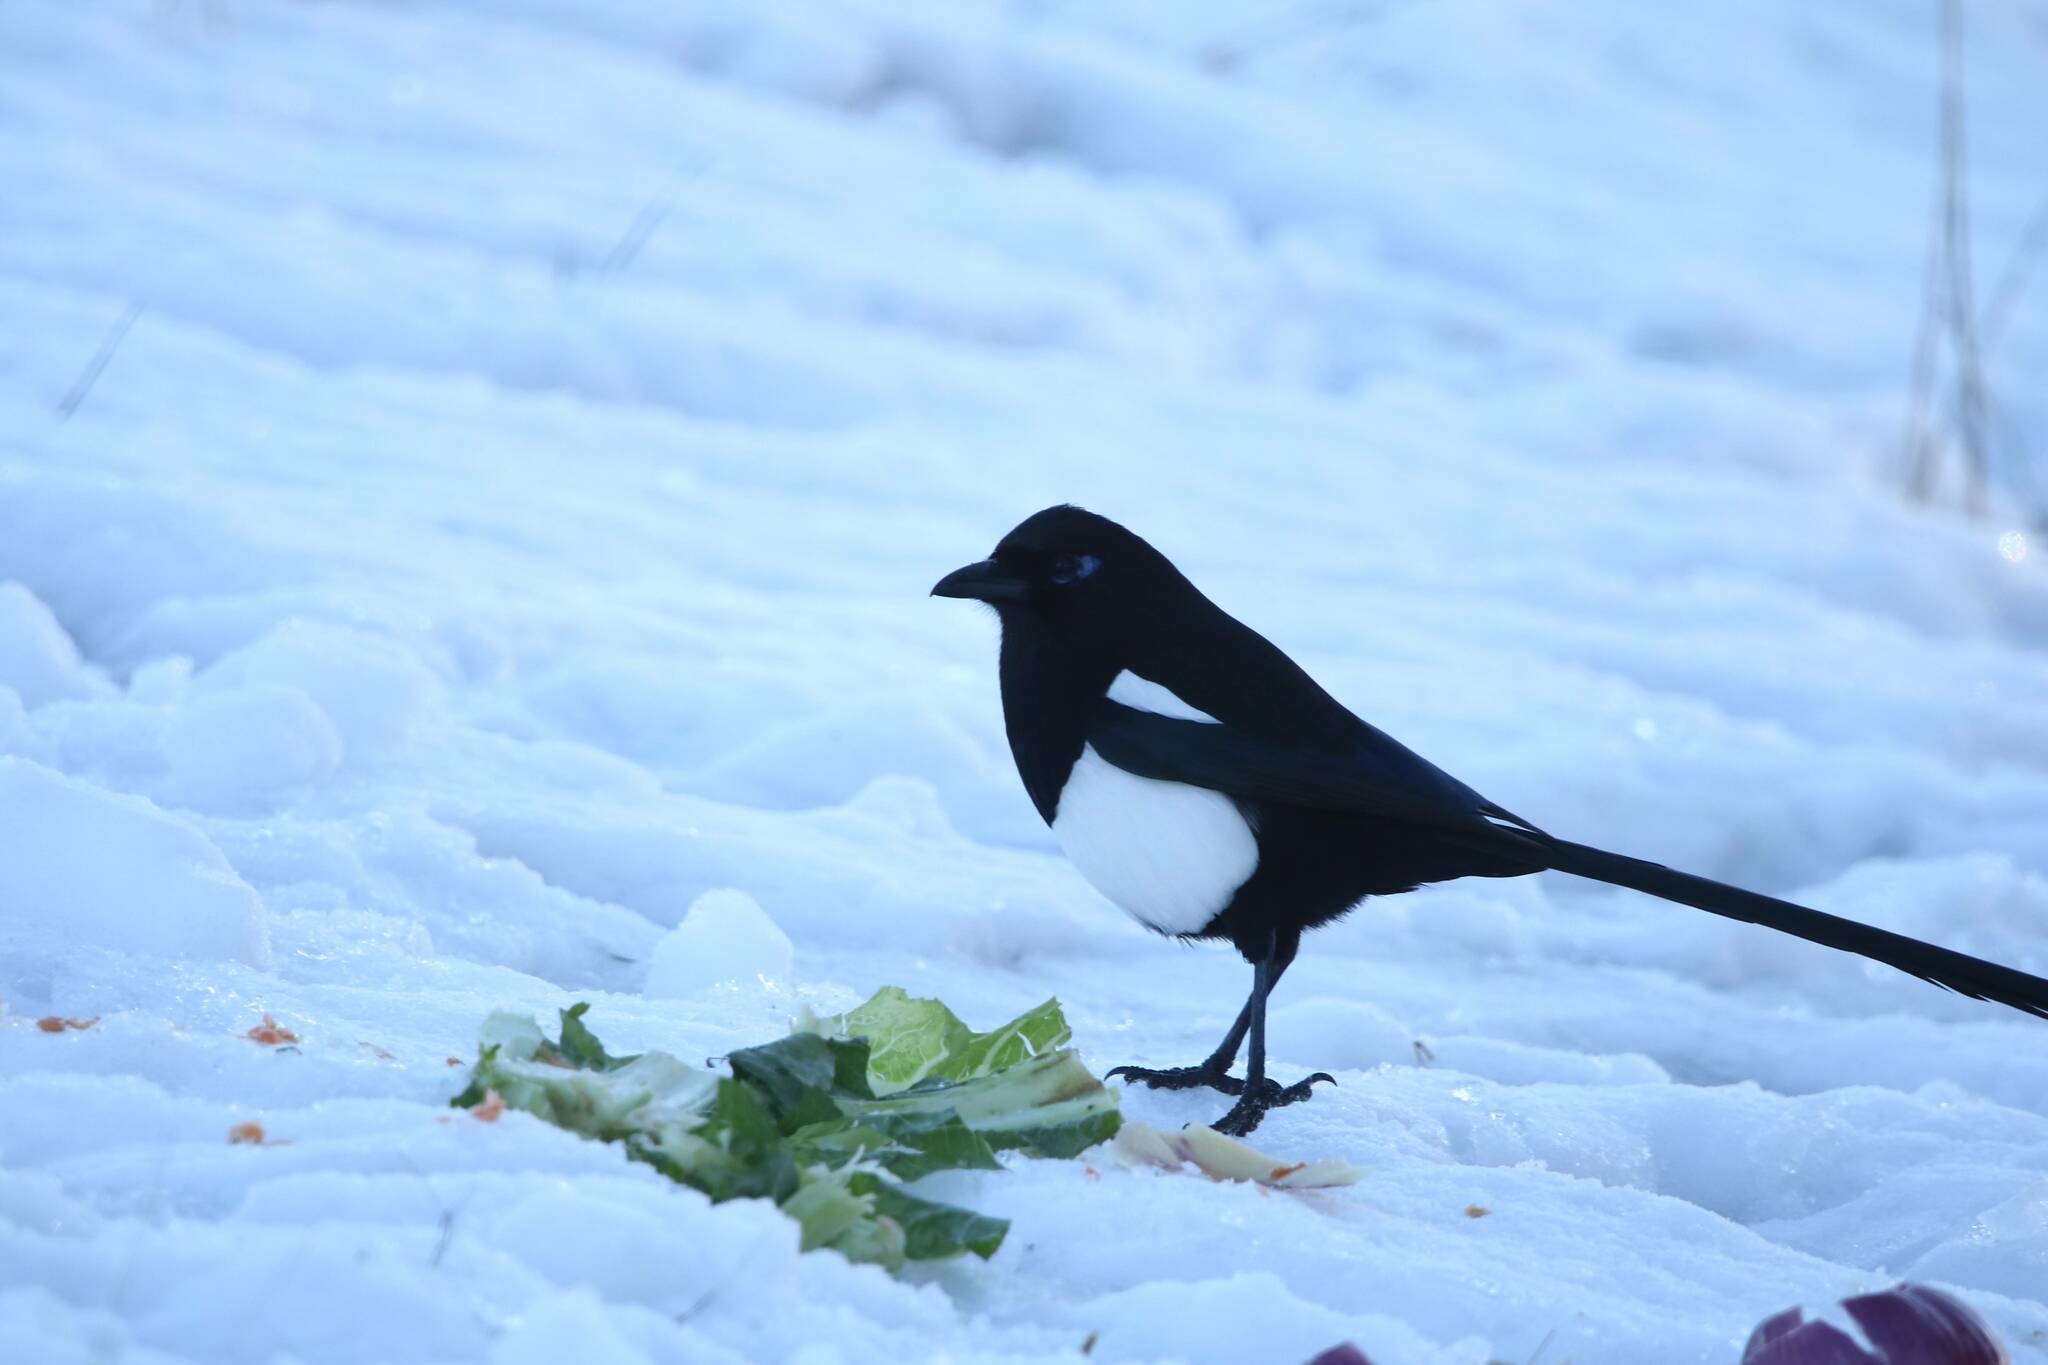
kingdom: Animalia
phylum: Chordata
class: Aves
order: Passeriformes
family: Corvidae
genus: Pica
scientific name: Pica mauritanica
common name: Maghreb magpie
